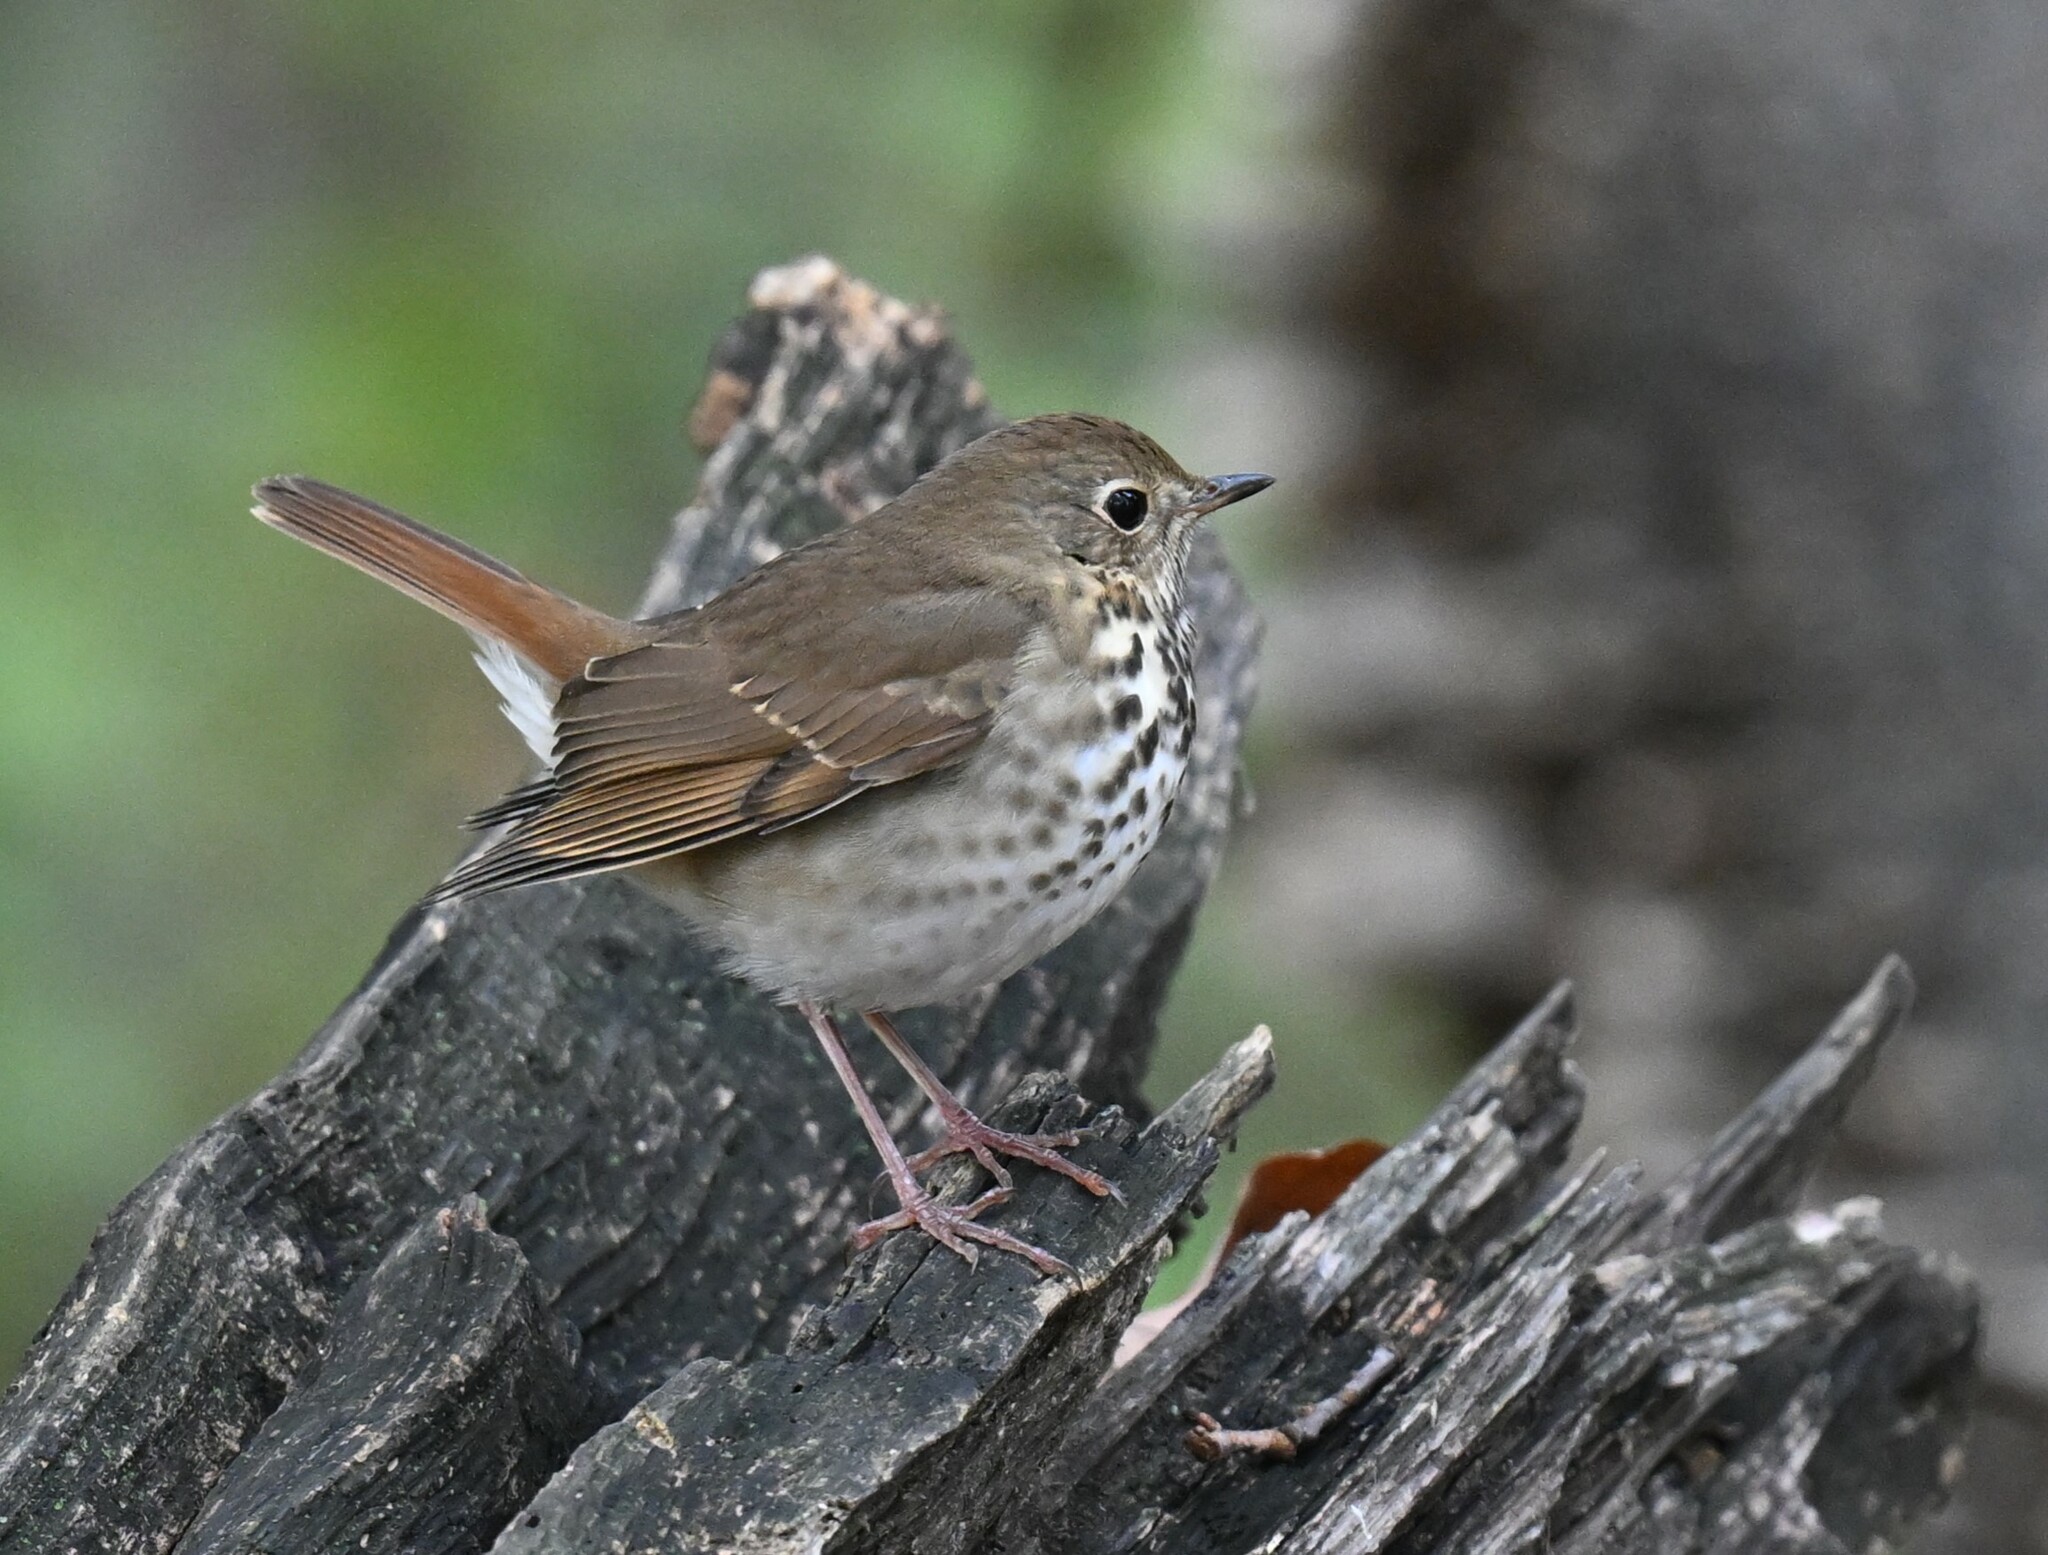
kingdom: Animalia
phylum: Chordata
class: Aves
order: Passeriformes
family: Turdidae
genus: Catharus
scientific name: Catharus guttatus
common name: Hermit thrush
